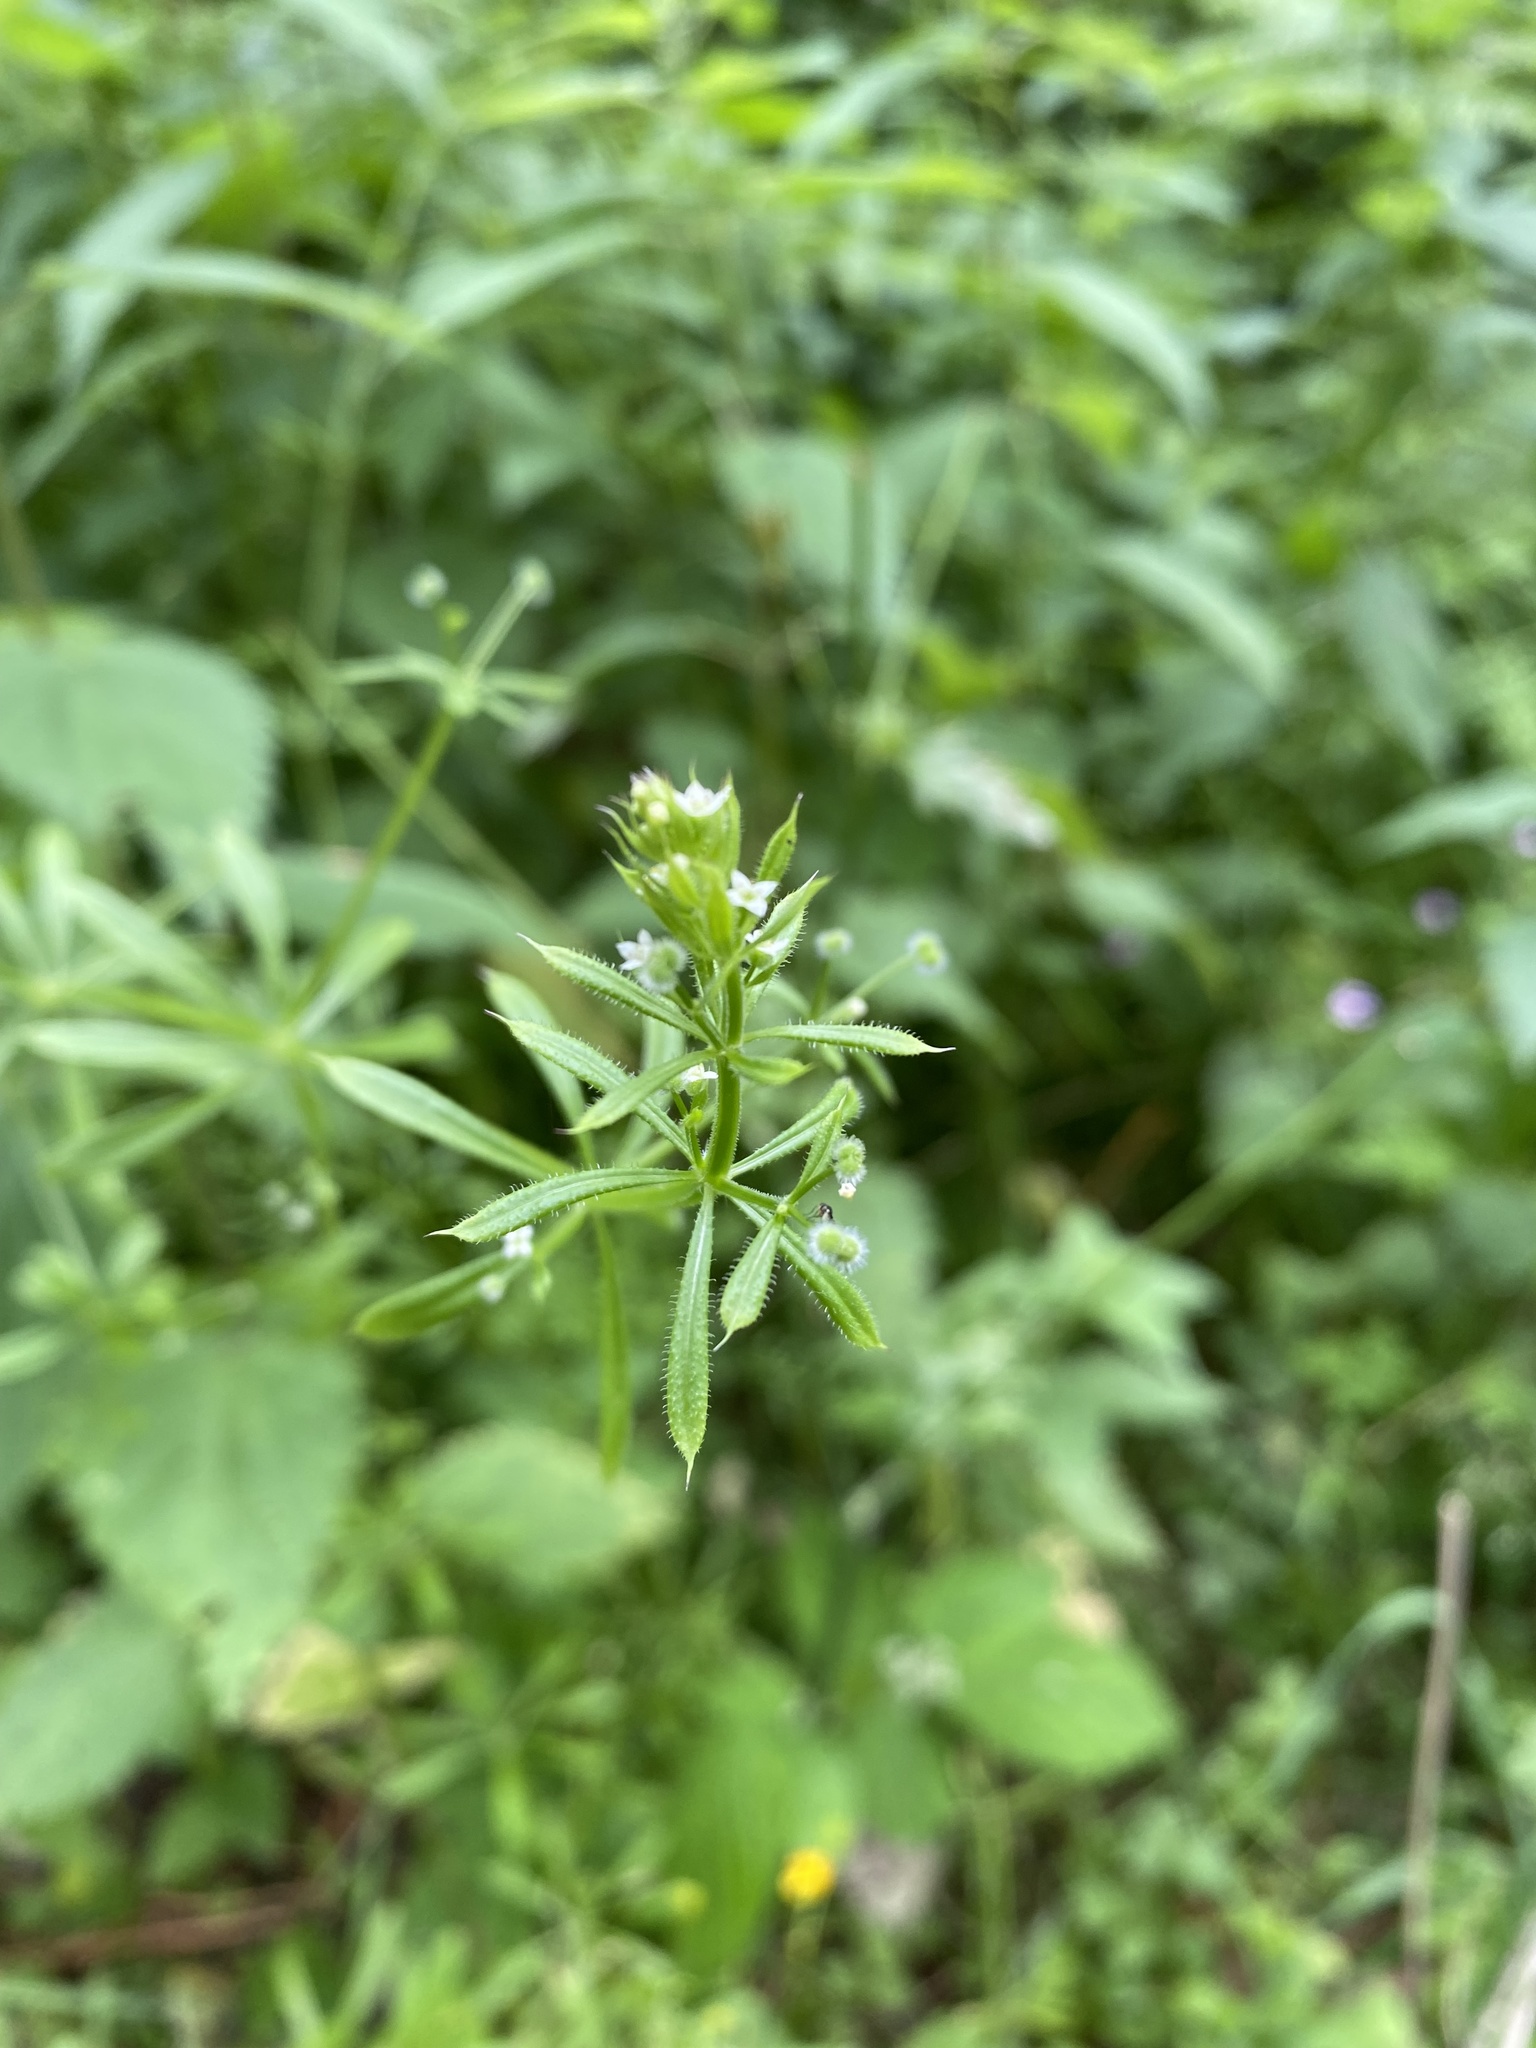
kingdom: Plantae
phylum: Tracheophyta
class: Magnoliopsida
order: Gentianales
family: Rubiaceae
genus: Galium
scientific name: Galium aparine
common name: Cleavers
